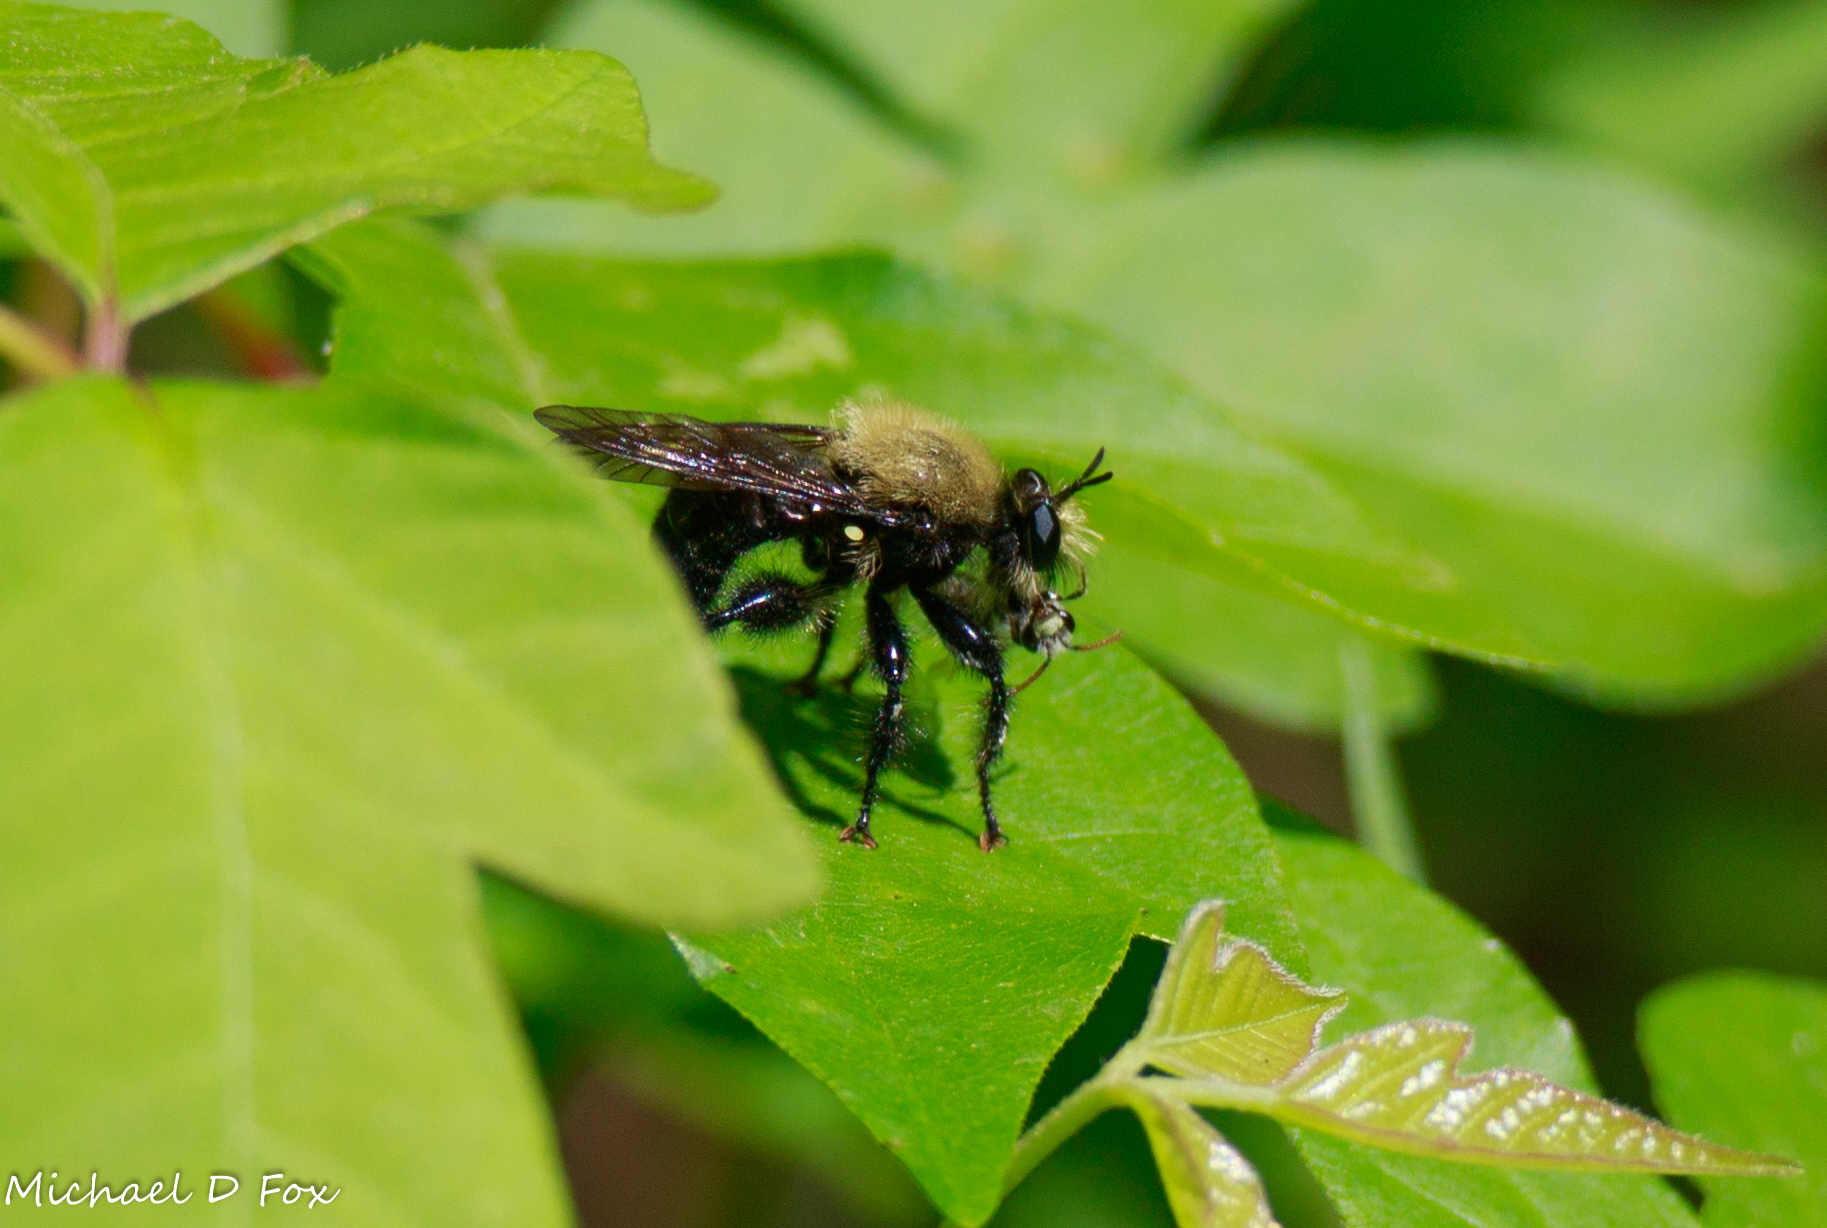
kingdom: Animalia
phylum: Arthropoda
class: Insecta
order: Diptera
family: Asilidae
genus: Laphria
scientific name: Laphria flavicollis
